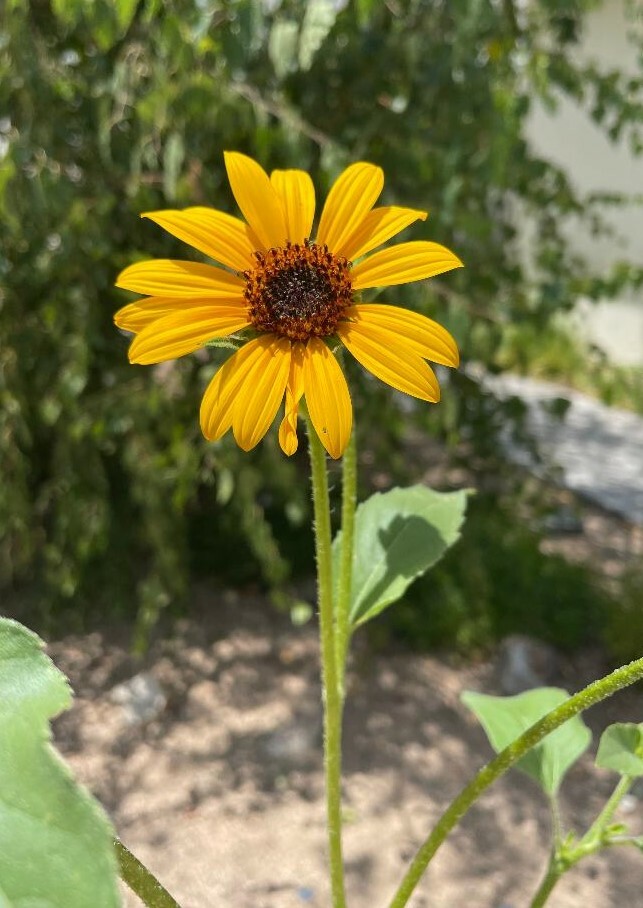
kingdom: Plantae
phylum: Tracheophyta
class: Magnoliopsida
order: Asterales
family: Asteraceae
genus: Helianthus
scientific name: Helianthus annuus
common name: Sunflower
